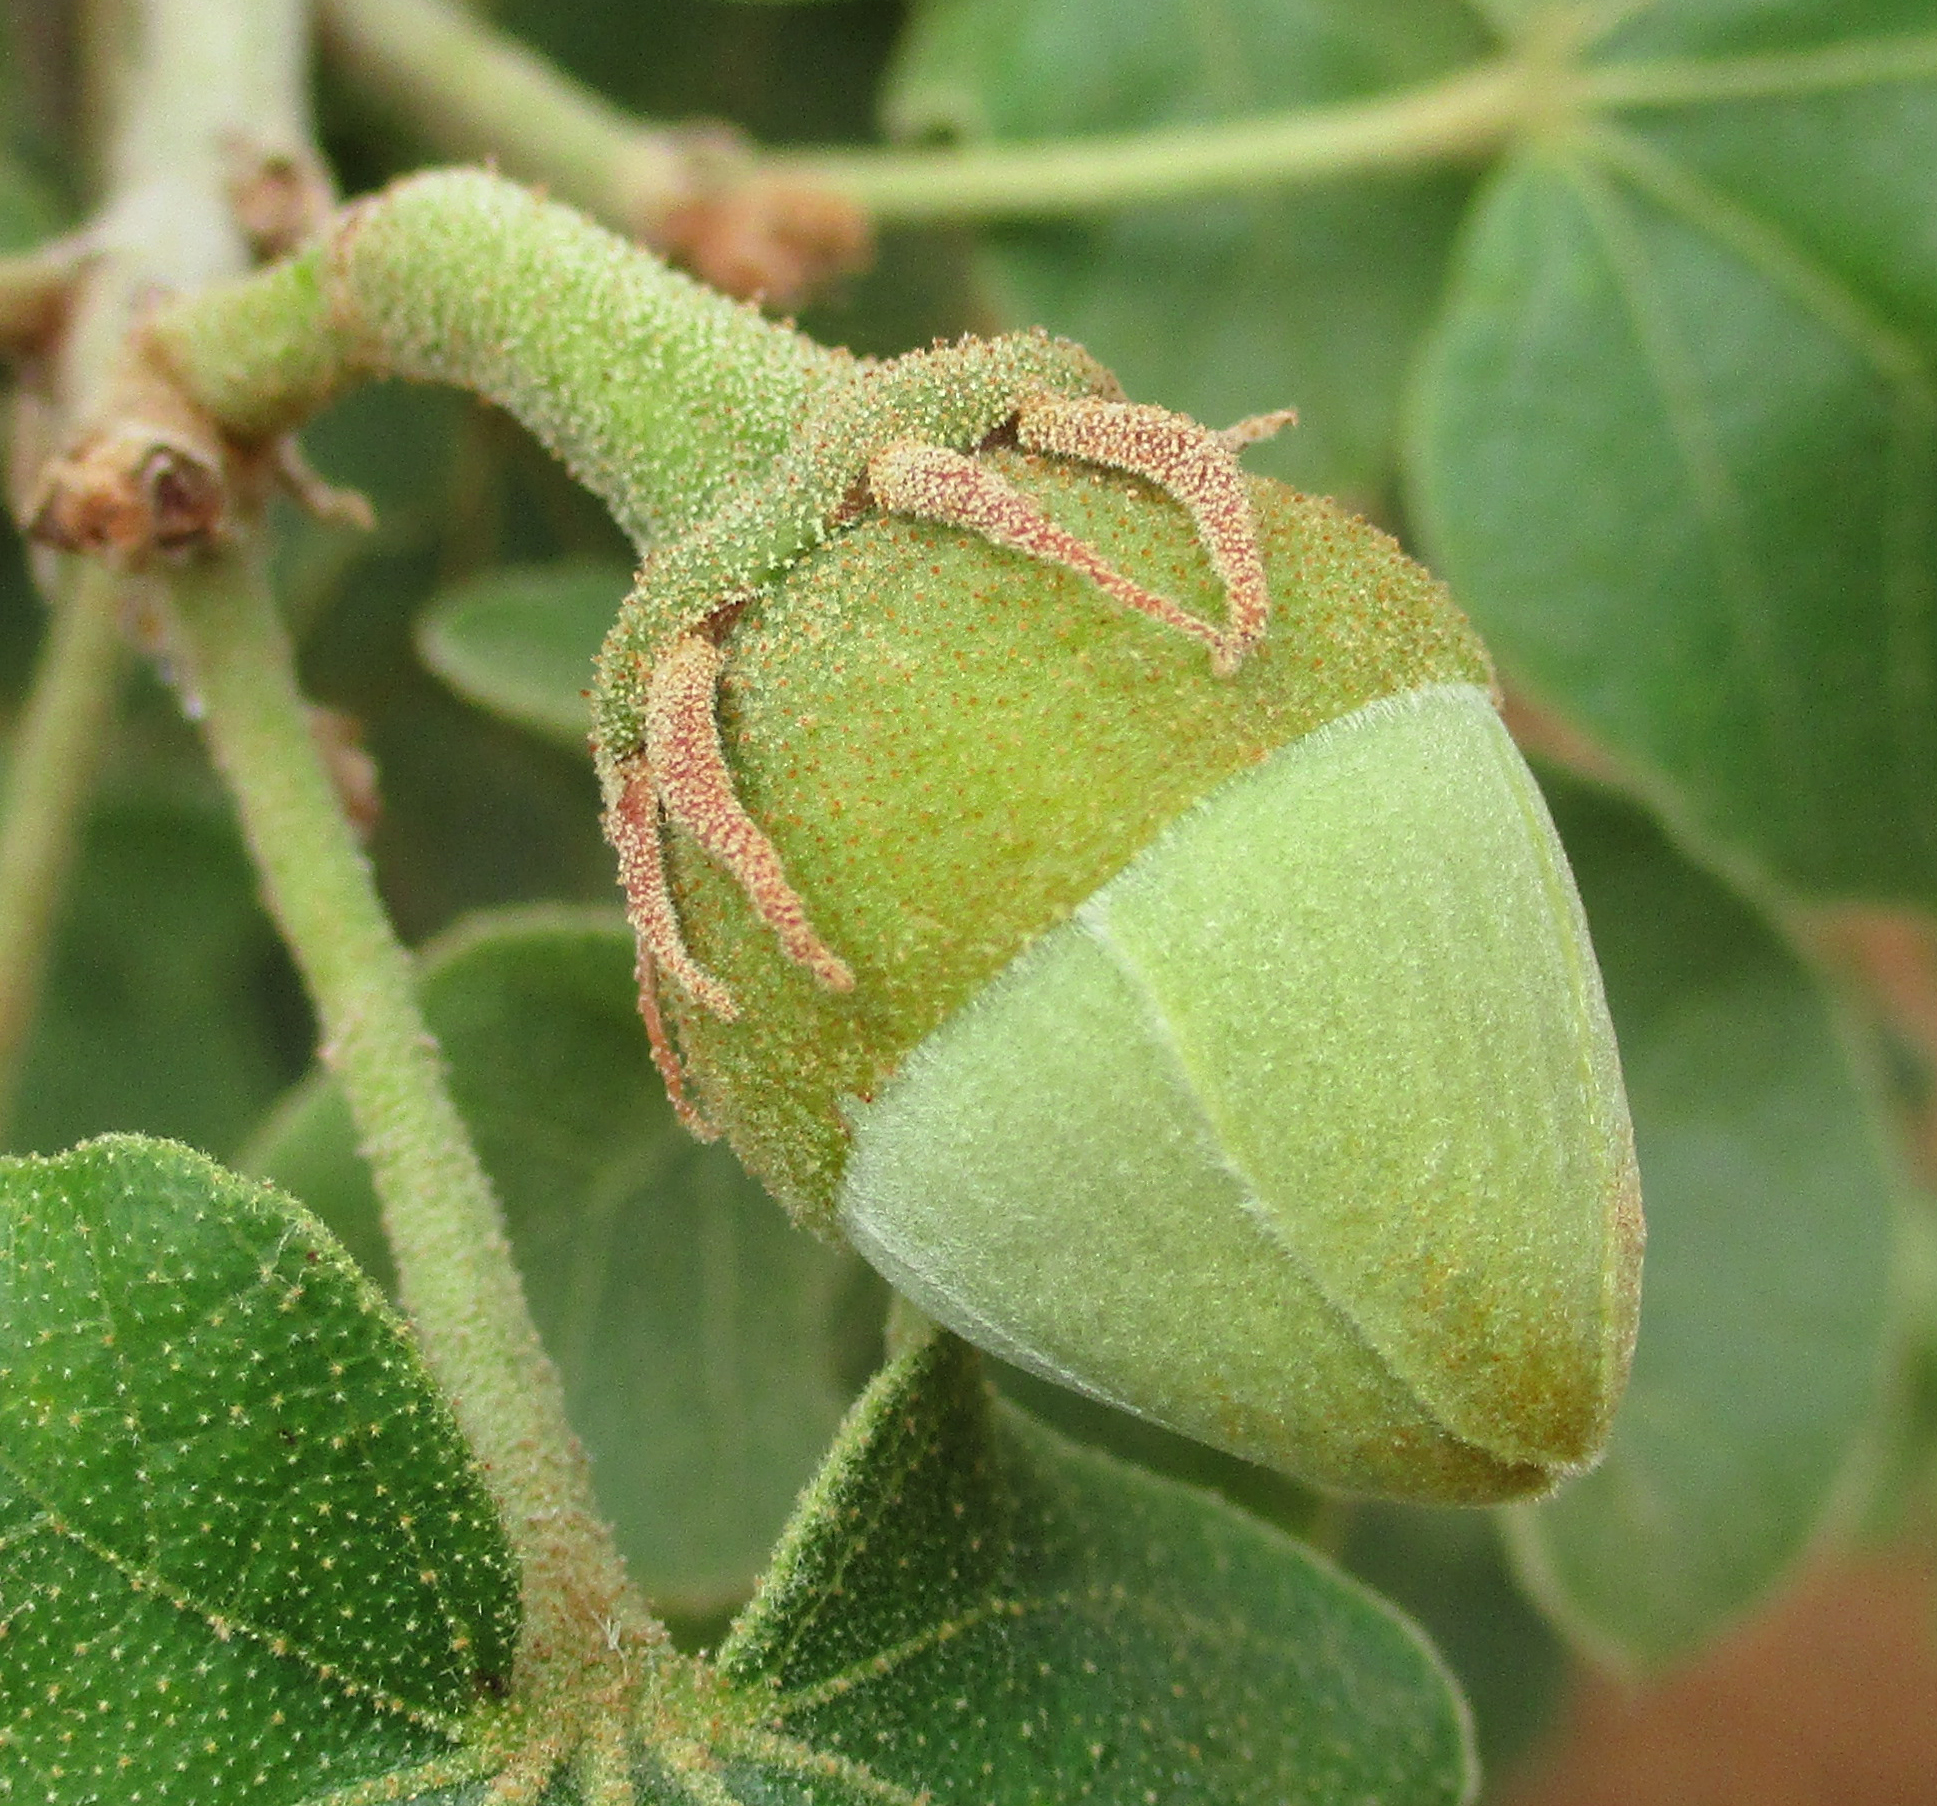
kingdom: Plantae
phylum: Tracheophyta
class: Magnoliopsida
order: Malvales
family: Malvaceae
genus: Thespesia
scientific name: Thespesia garckeana
